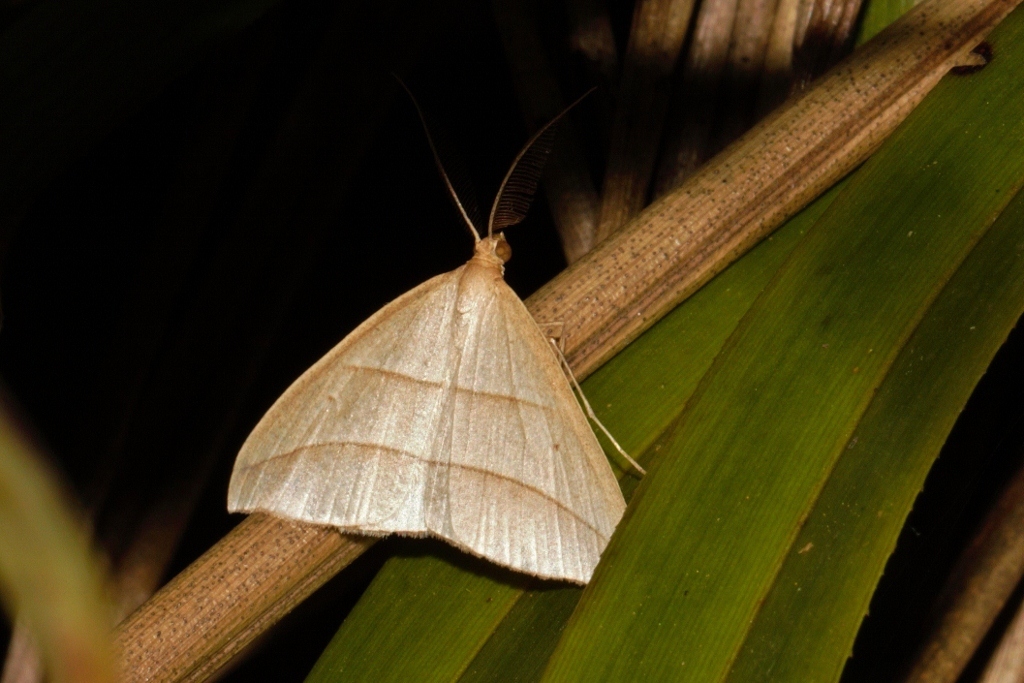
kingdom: Animalia
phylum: Arthropoda
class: Insecta
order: Lepidoptera
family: Geometridae
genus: Afrophyla
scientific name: Afrophyla vethi
